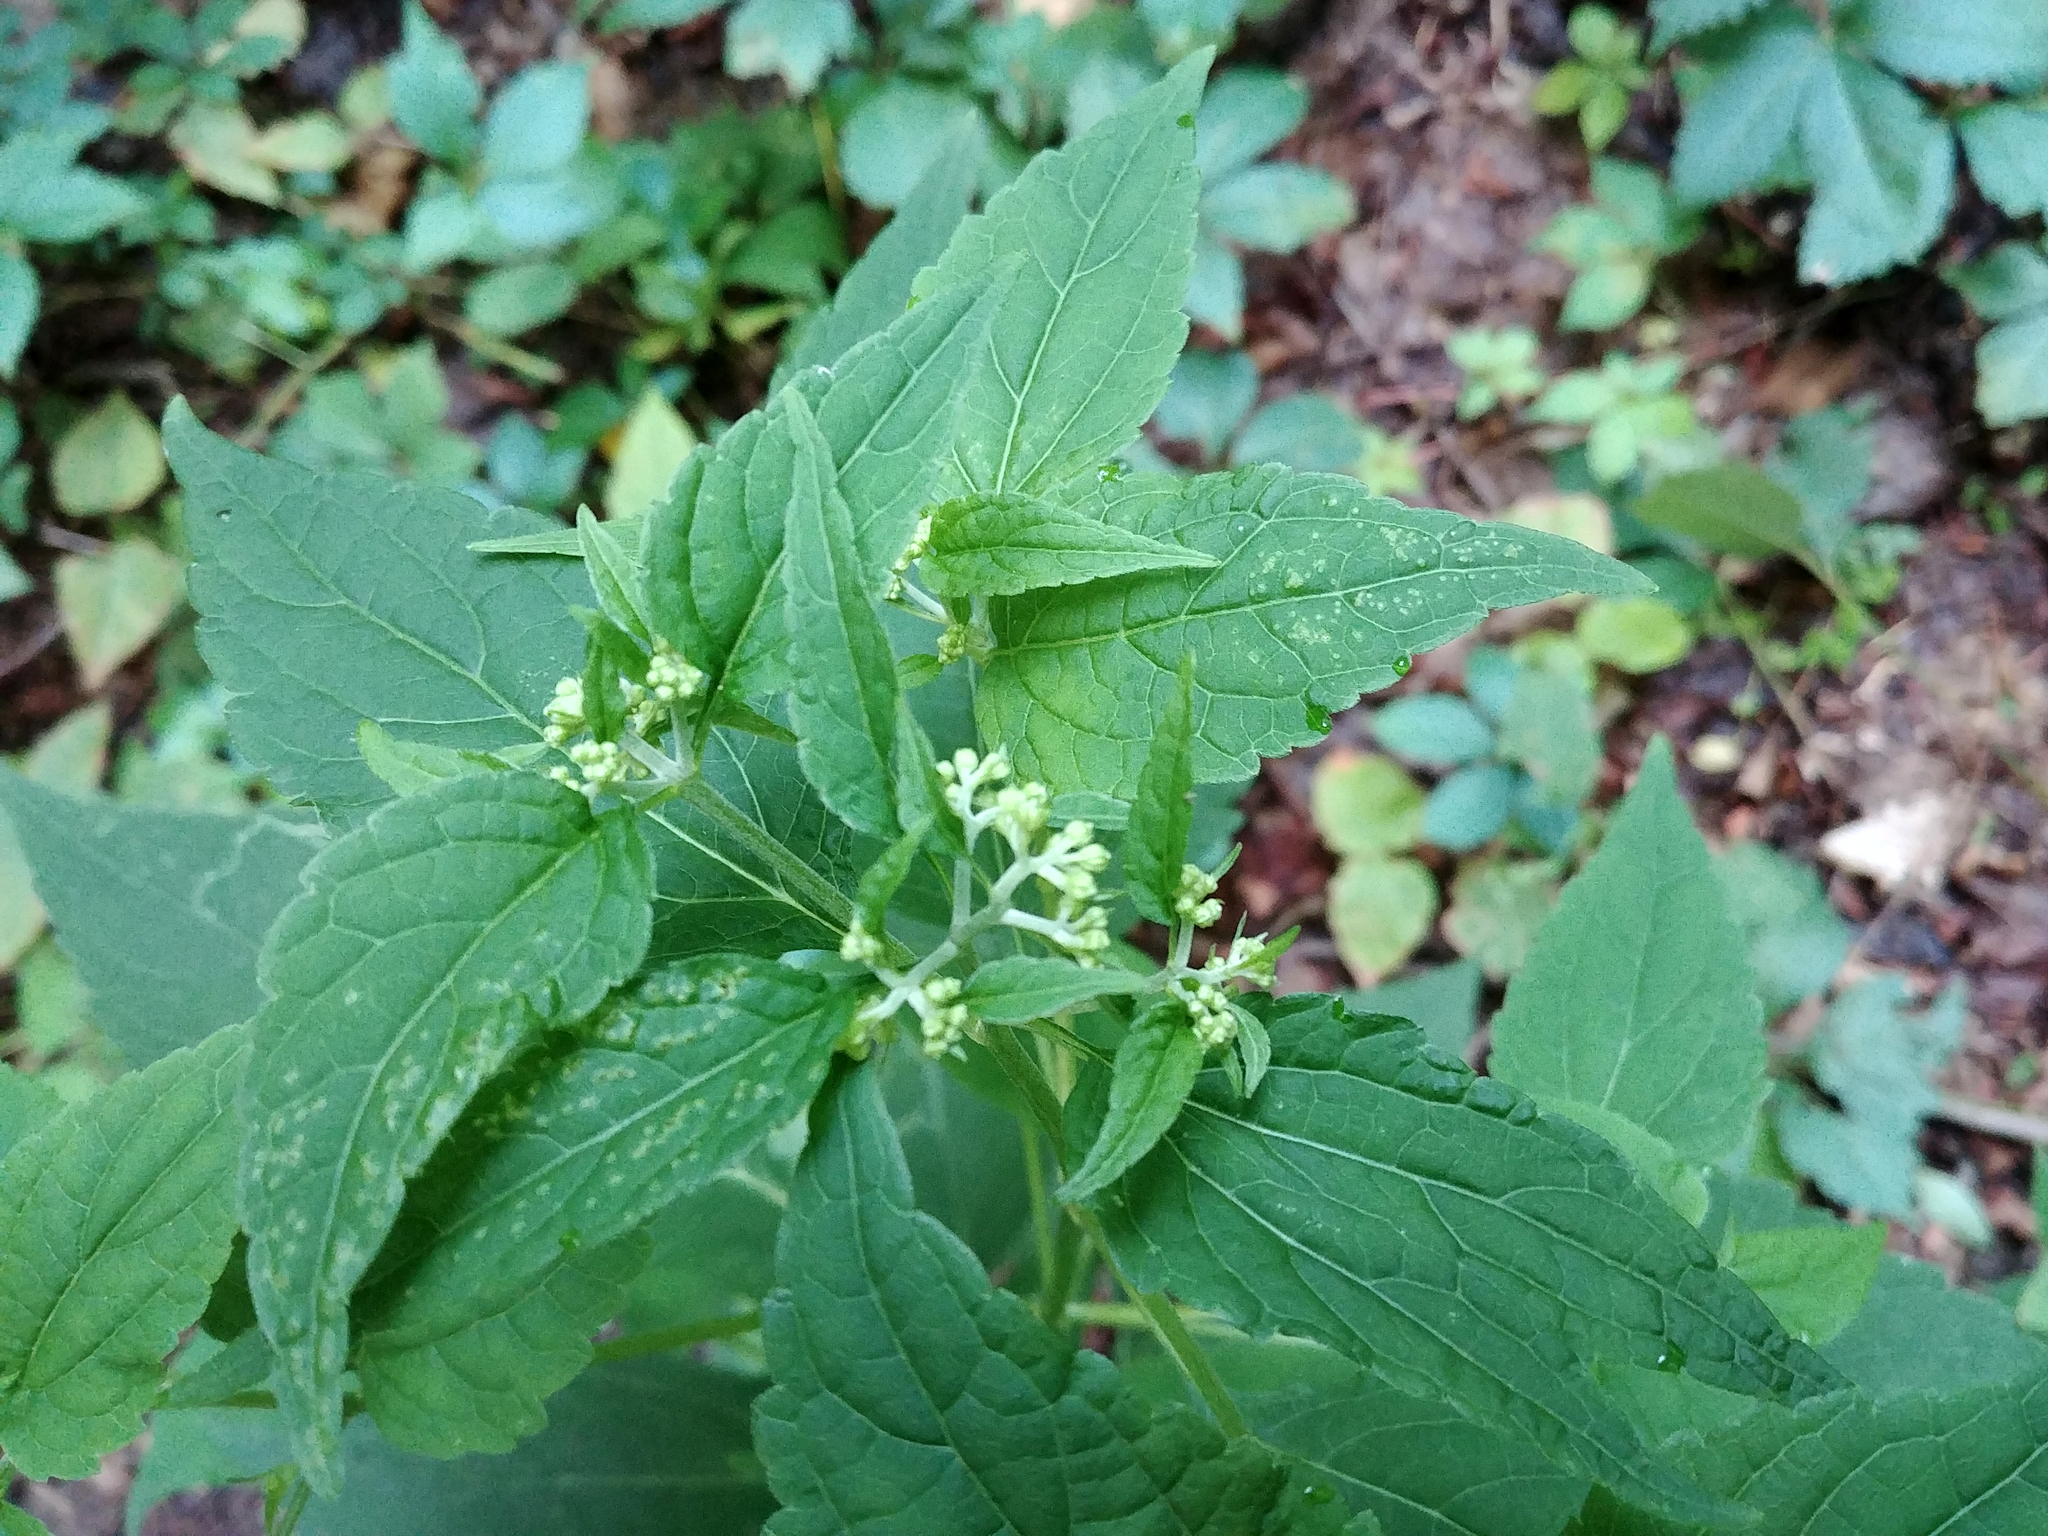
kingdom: Plantae
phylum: Tracheophyta
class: Magnoliopsida
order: Asterales
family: Asteraceae
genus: Ageratina
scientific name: Ageratina altissima
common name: White snakeroot
